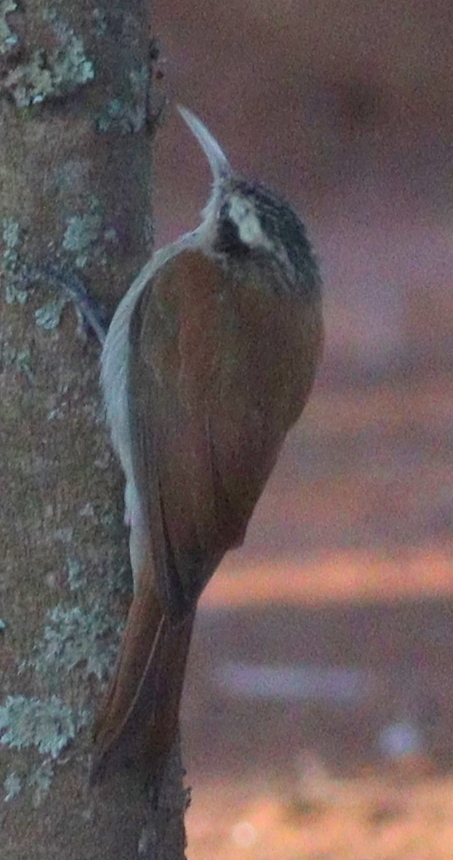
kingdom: Animalia
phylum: Chordata
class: Aves
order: Passeriformes
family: Furnariidae
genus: Lepidocolaptes
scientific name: Lepidocolaptes angustirostris
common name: Narrow-billed woodcreeper
